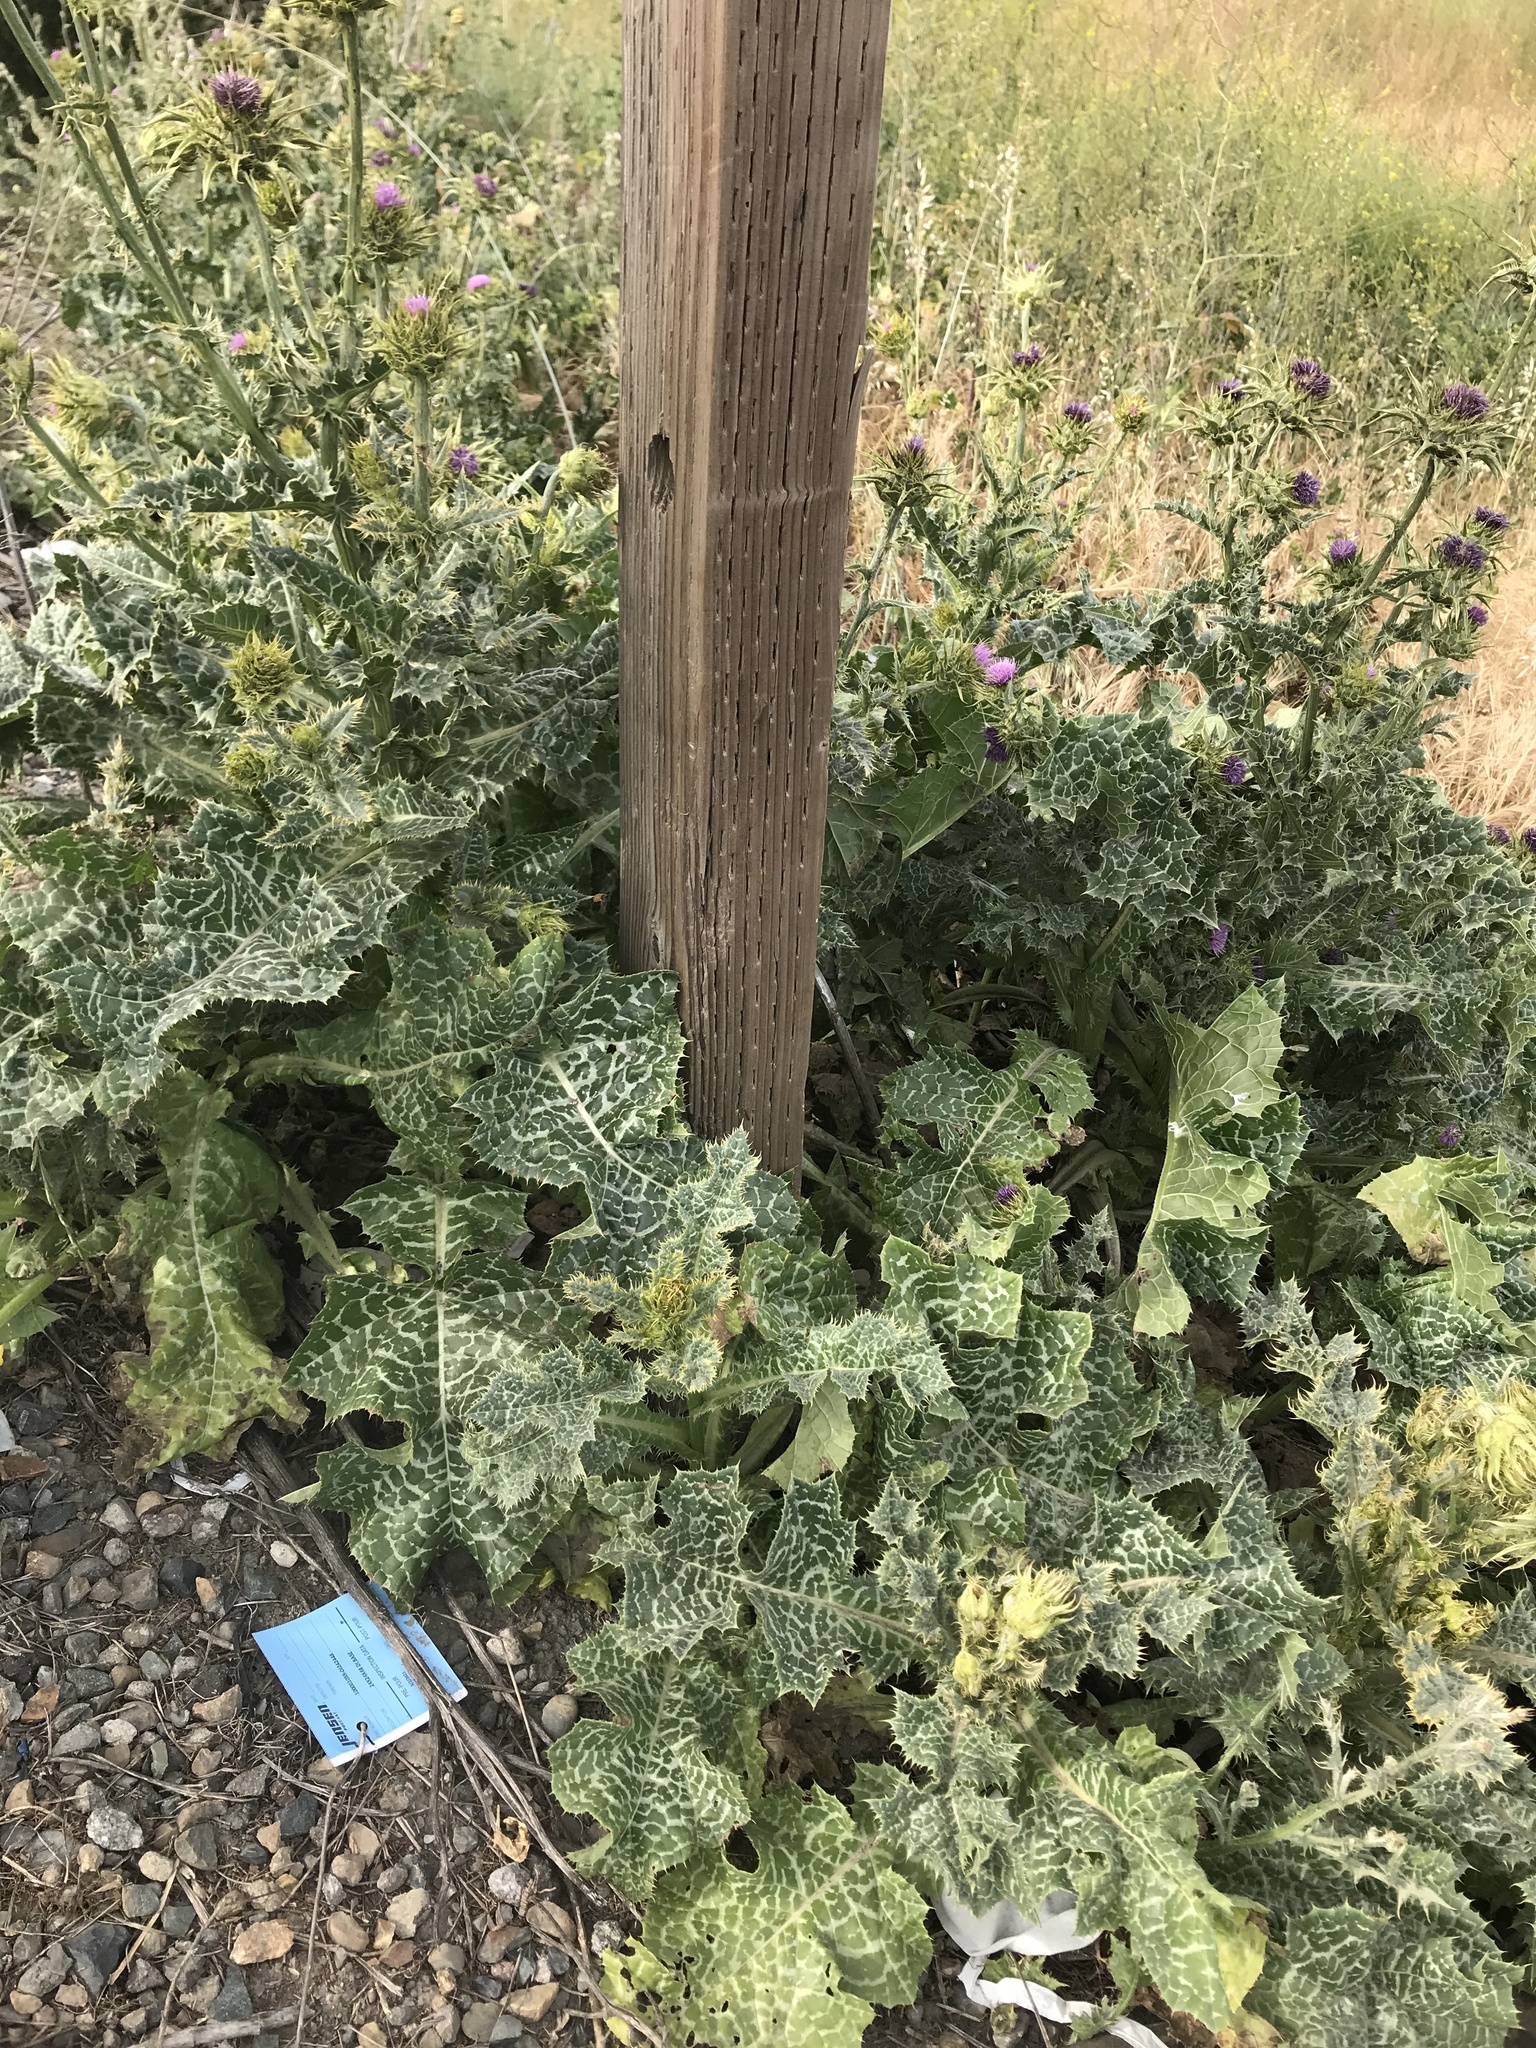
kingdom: Plantae
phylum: Tracheophyta
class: Magnoliopsida
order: Asterales
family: Asteraceae
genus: Silybum
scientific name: Silybum marianum
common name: Milk thistle
